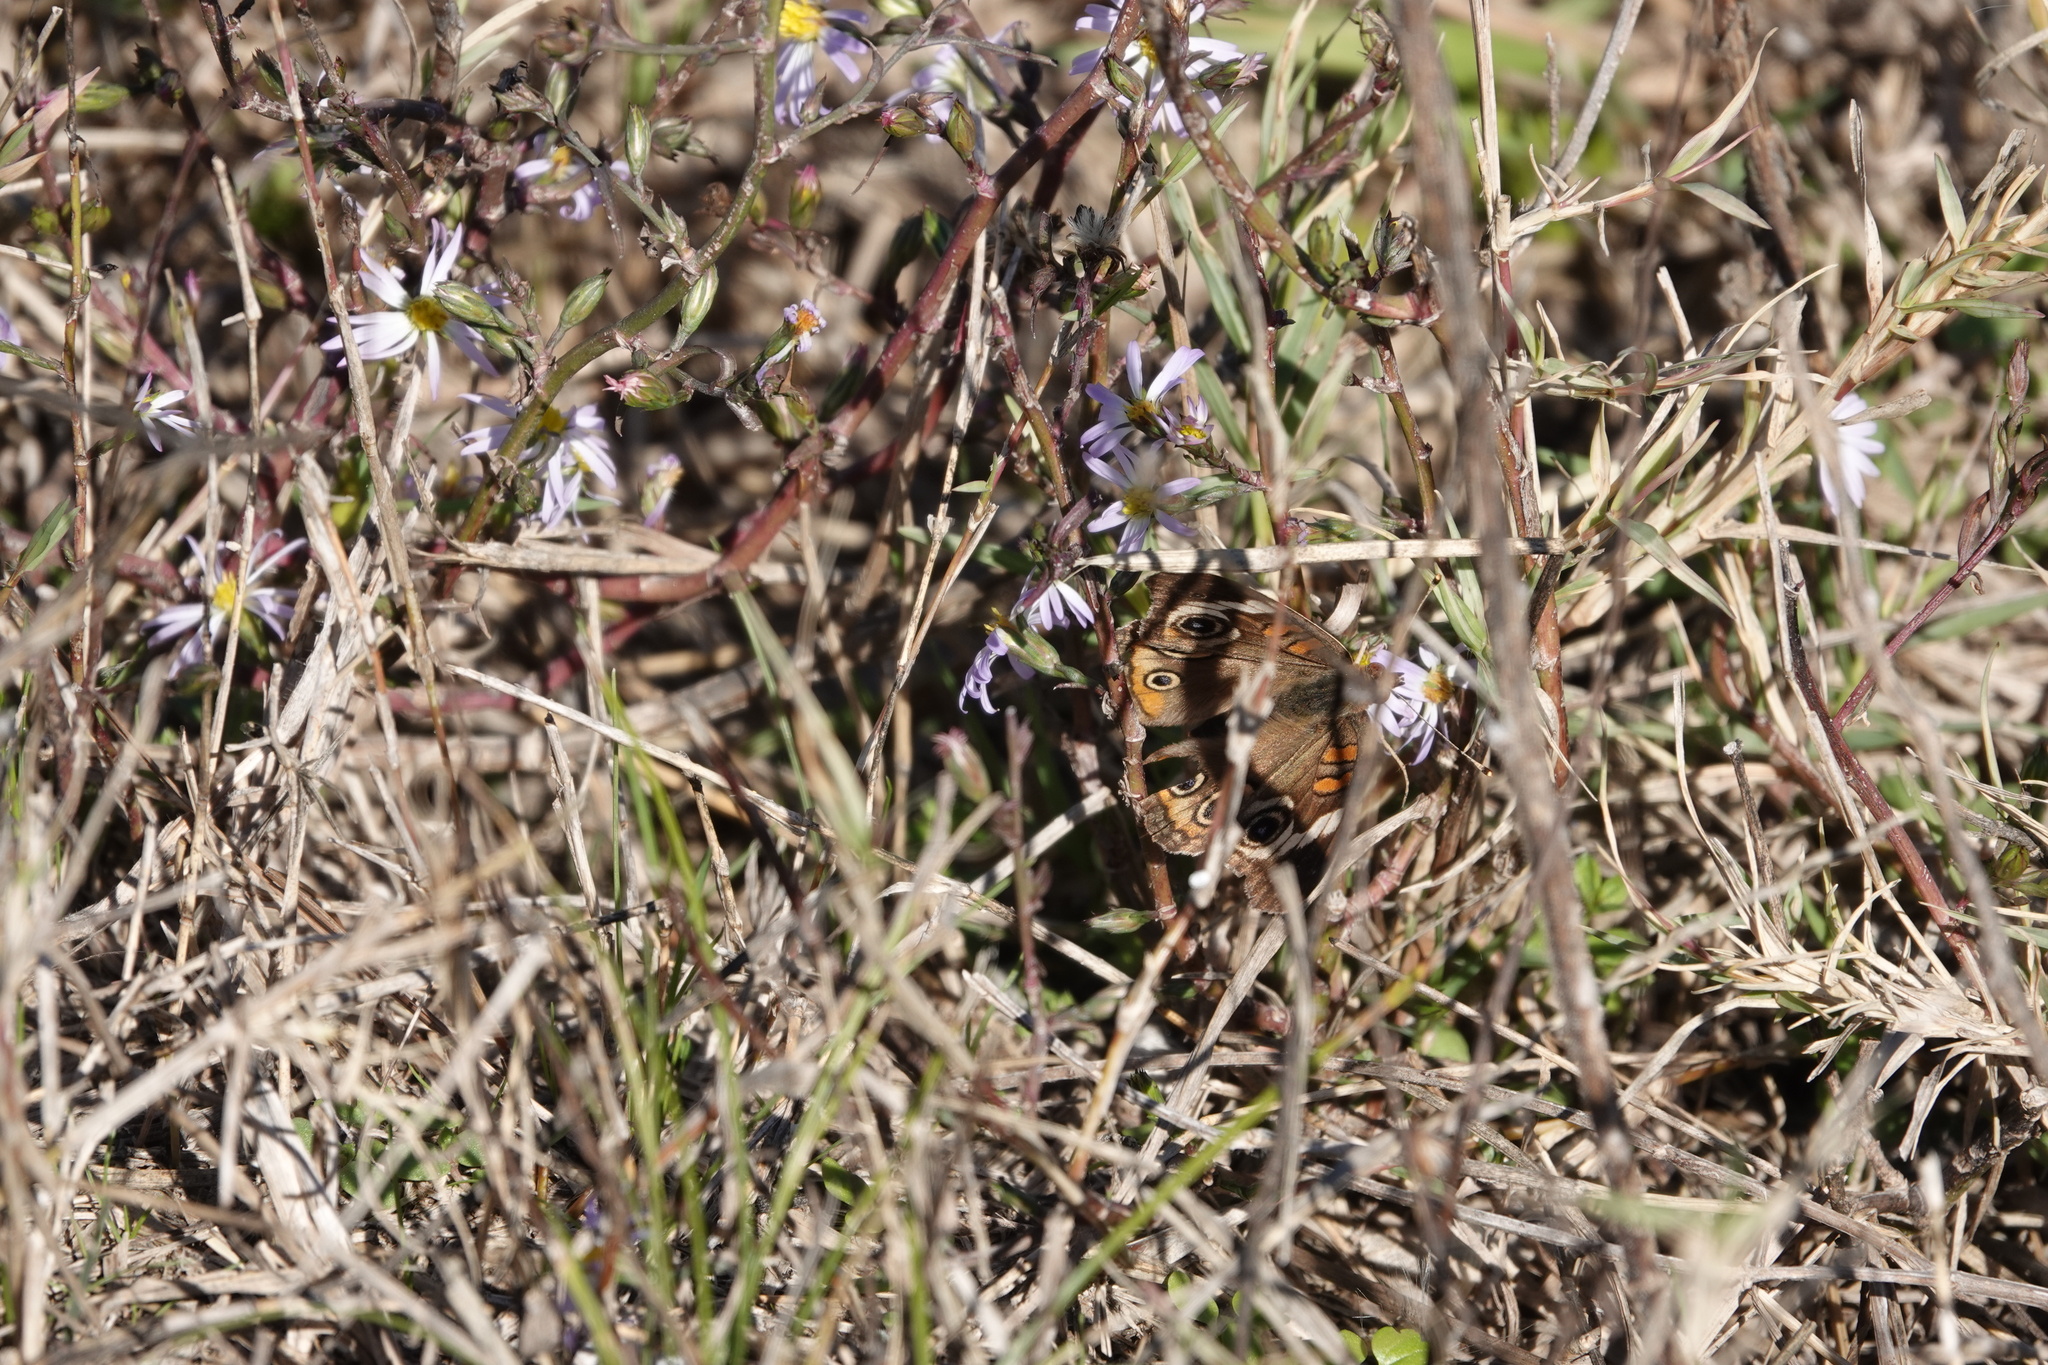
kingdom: Animalia
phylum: Arthropoda
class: Insecta
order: Lepidoptera
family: Nymphalidae
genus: Junonia
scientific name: Junonia coenia
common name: Common buckeye
